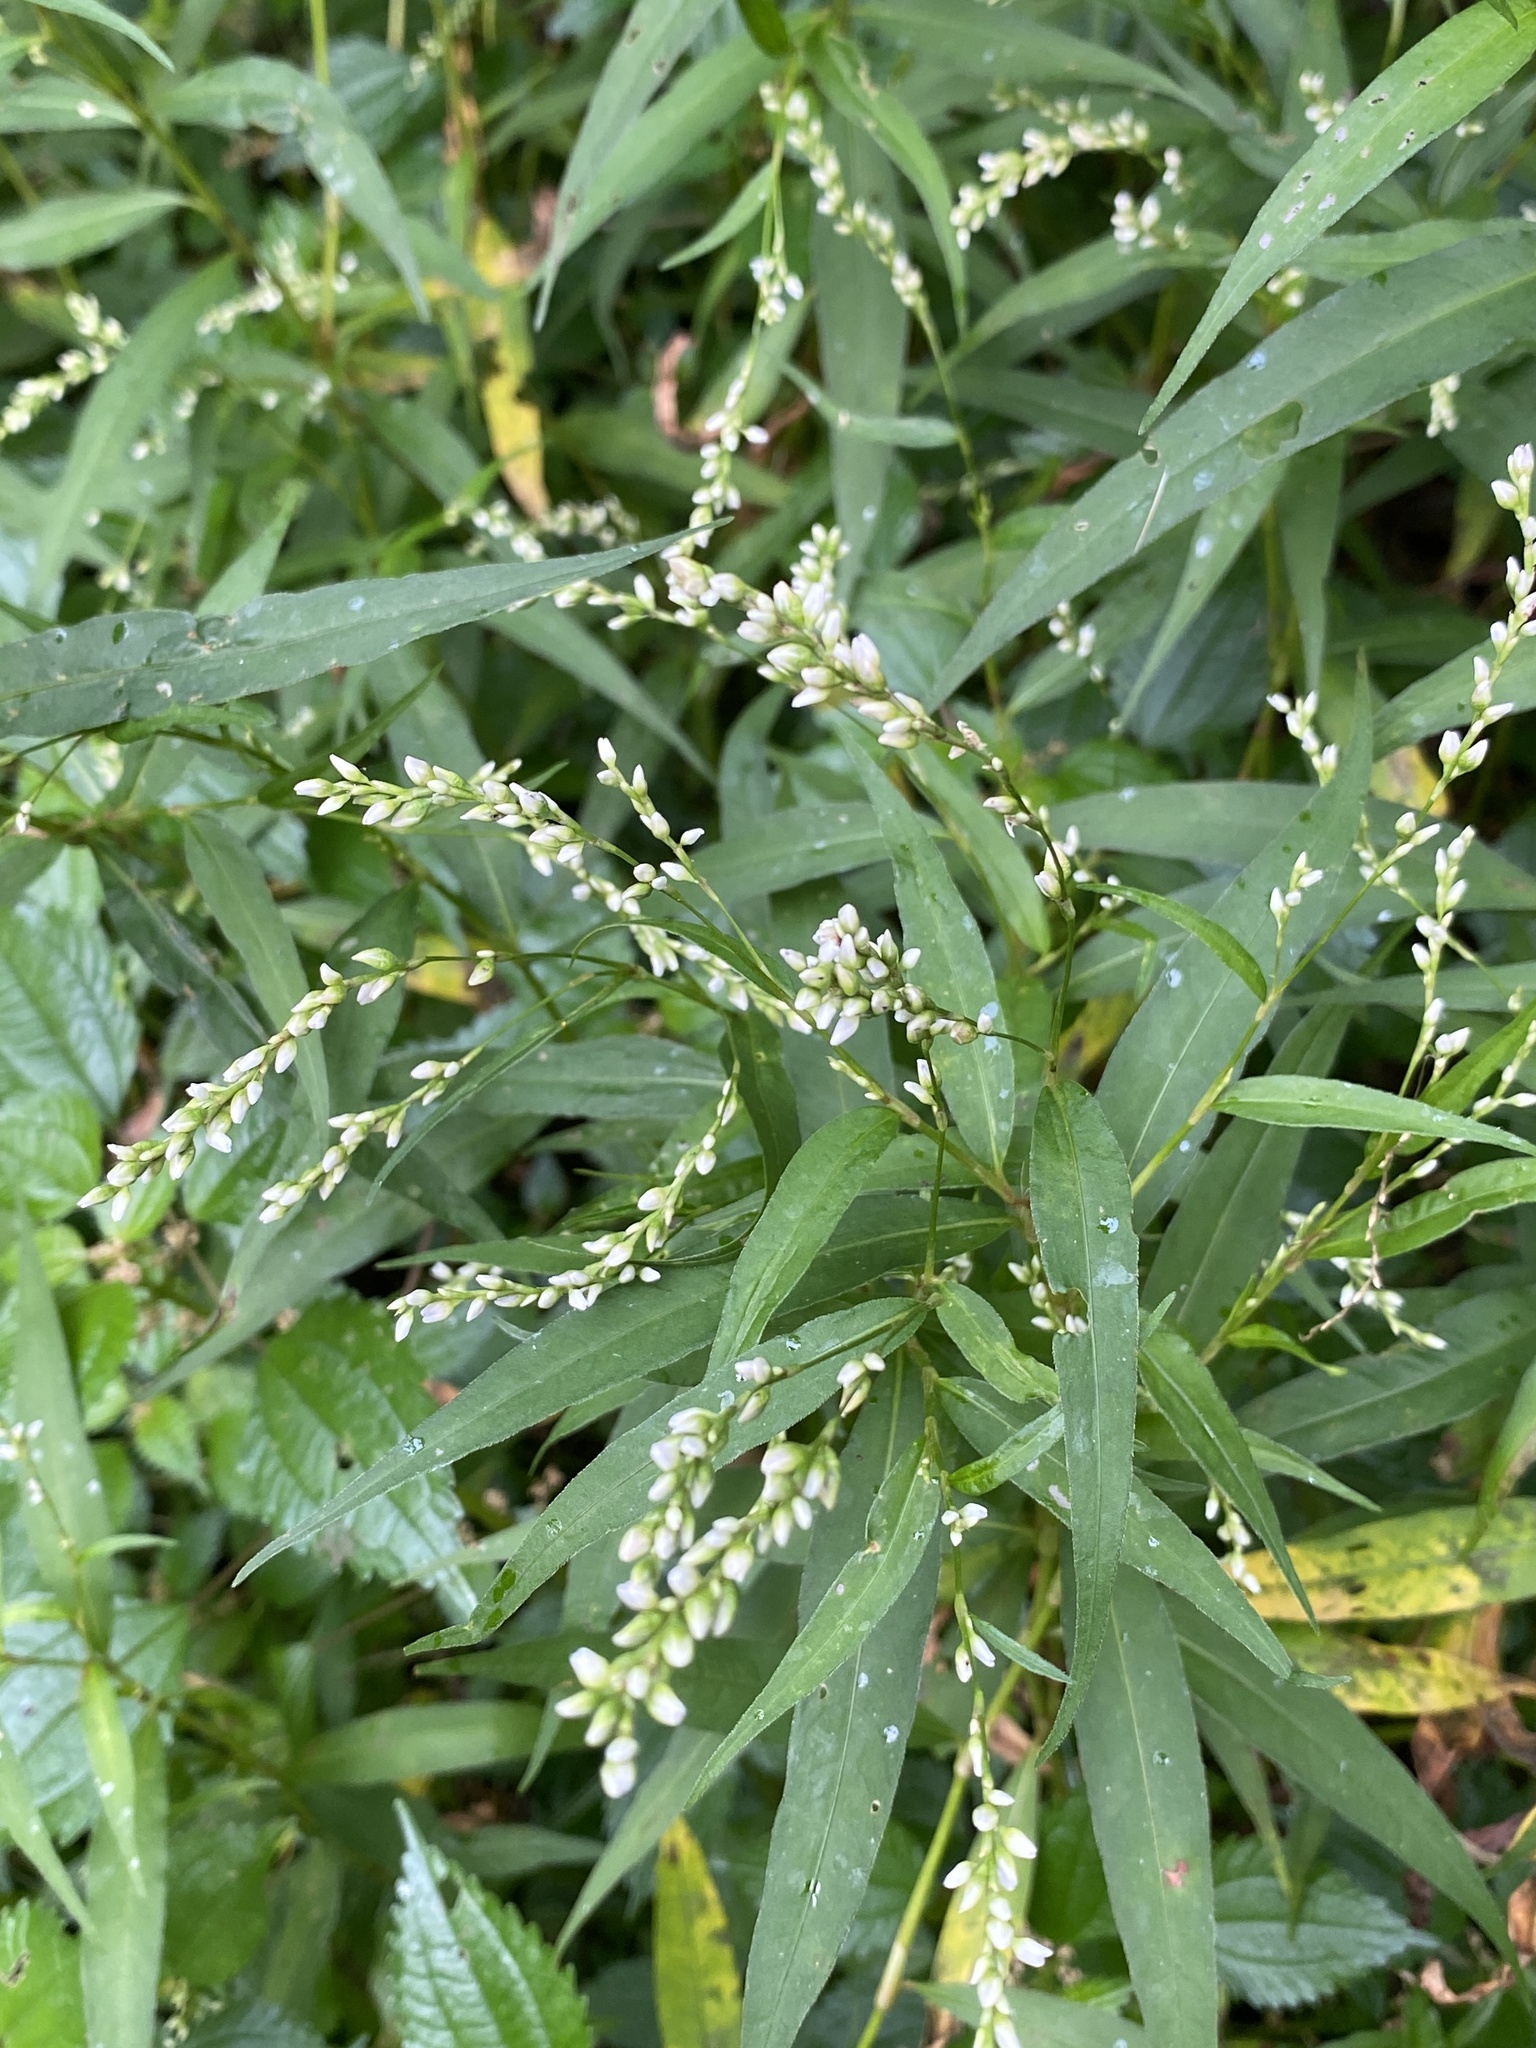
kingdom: Plantae
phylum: Tracheophyta
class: Magnoliopsida
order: Caryophyllales
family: Polygonaceae
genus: Persicaria
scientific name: Persicaria punctata
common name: Dotted smartweed
